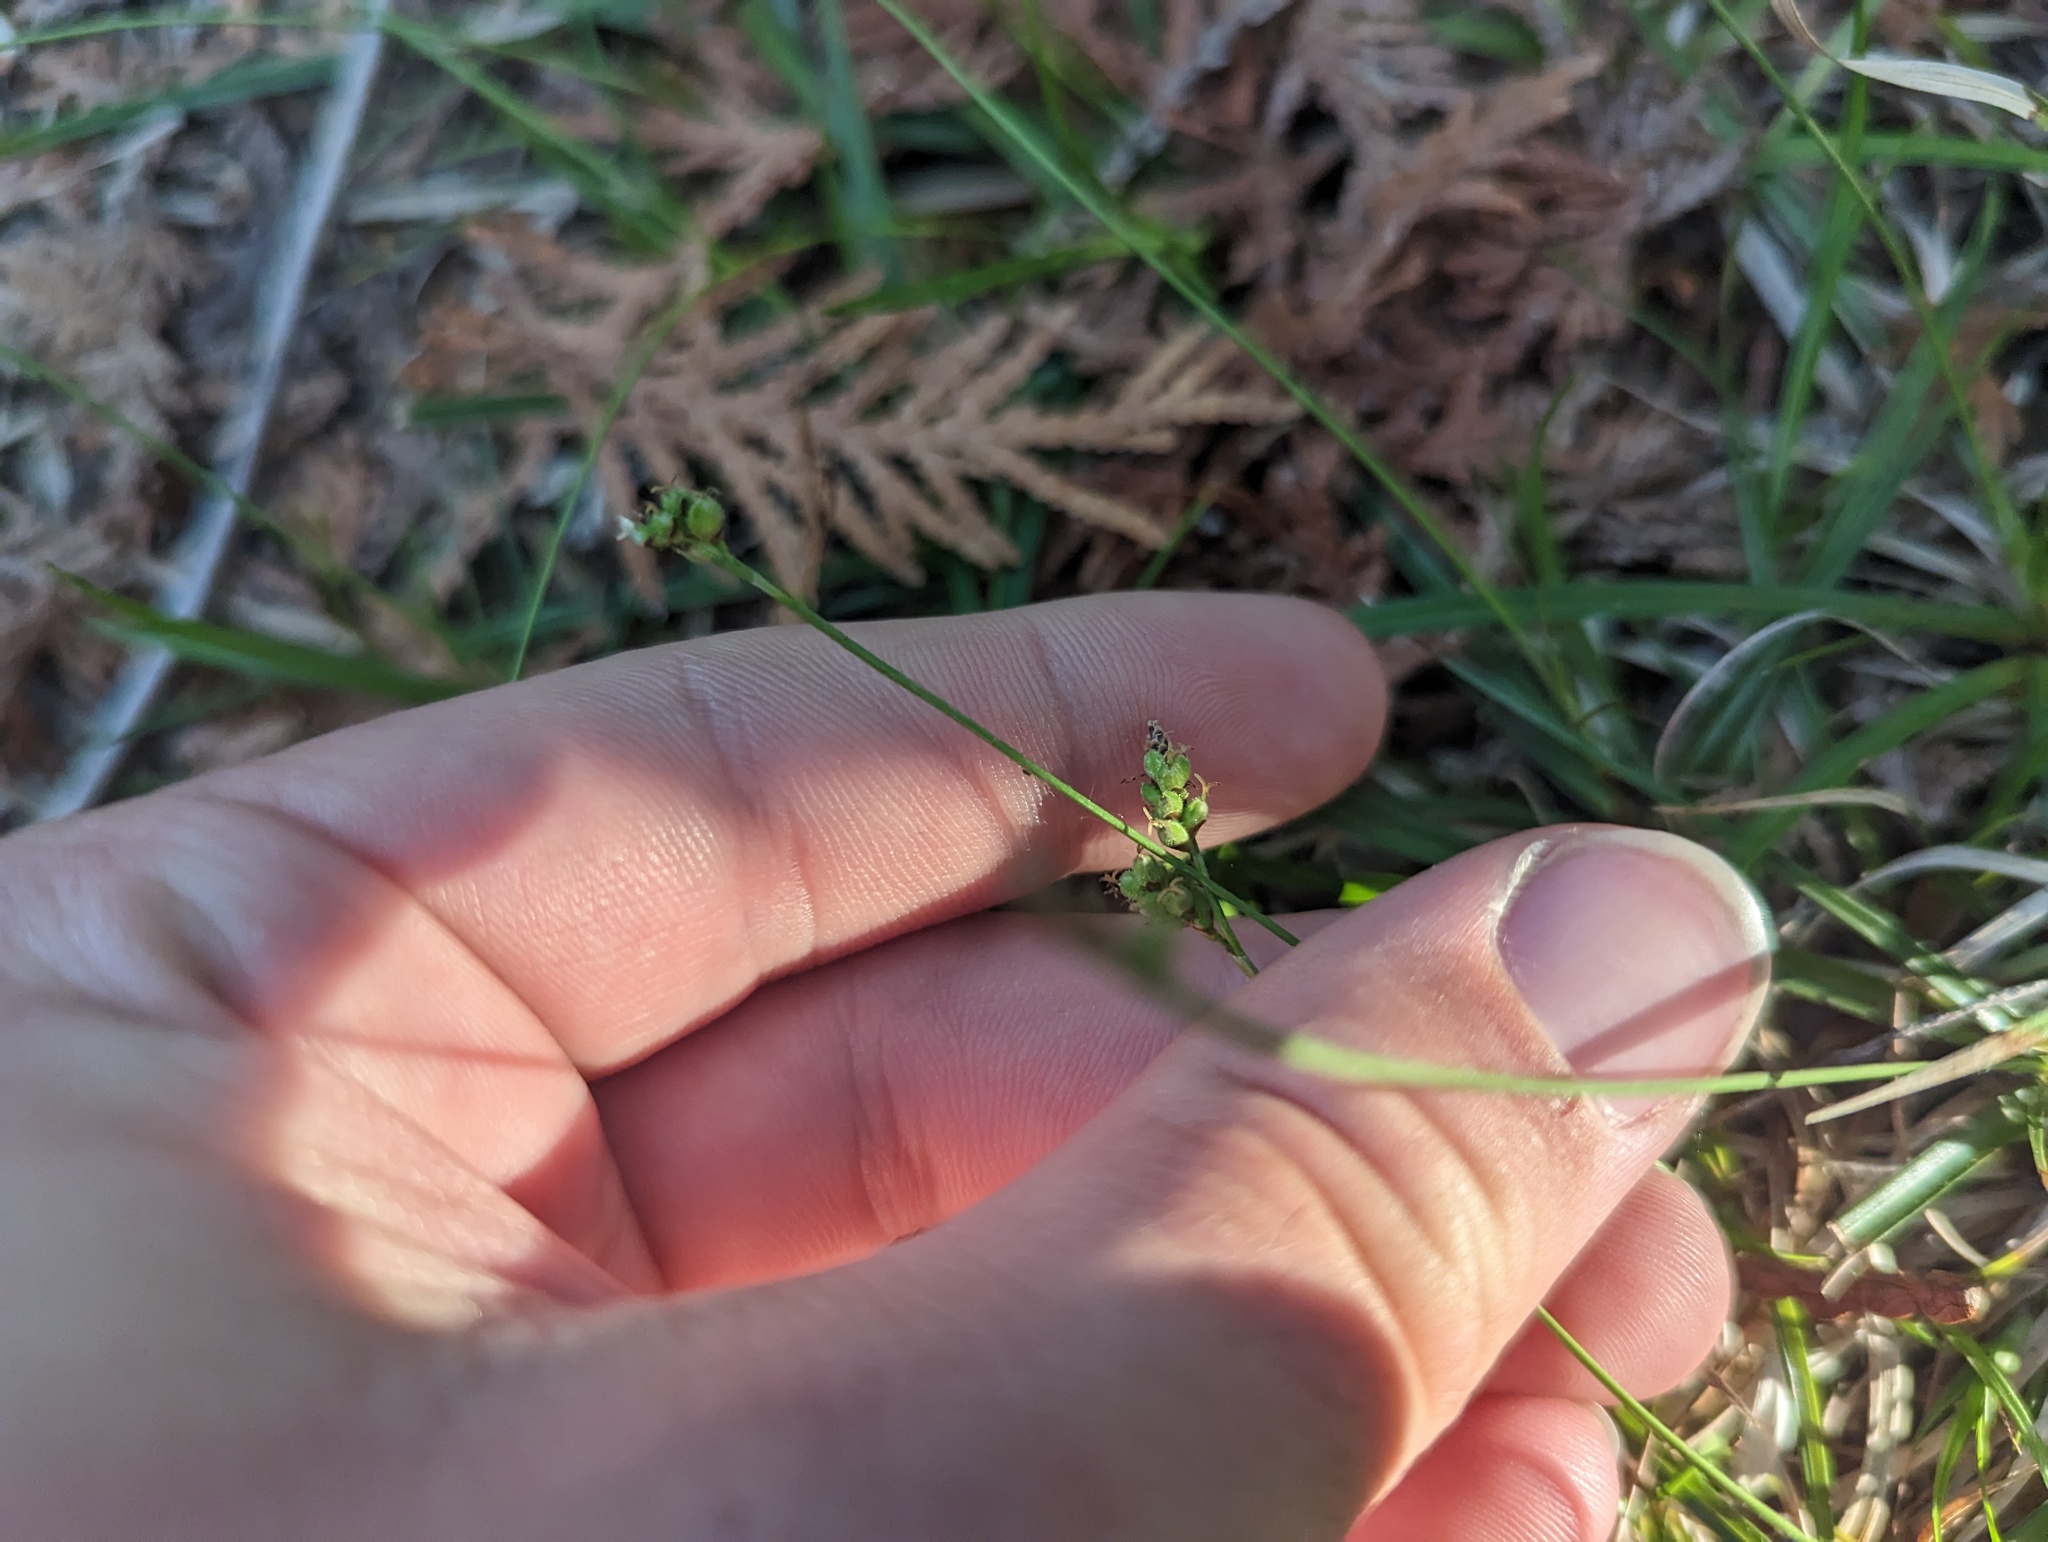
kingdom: Plantae
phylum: Tracheophyta
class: Liliopsida
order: Poales
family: Cyperaceae
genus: Carex
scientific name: Carex concinna
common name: Beautiful sedge
